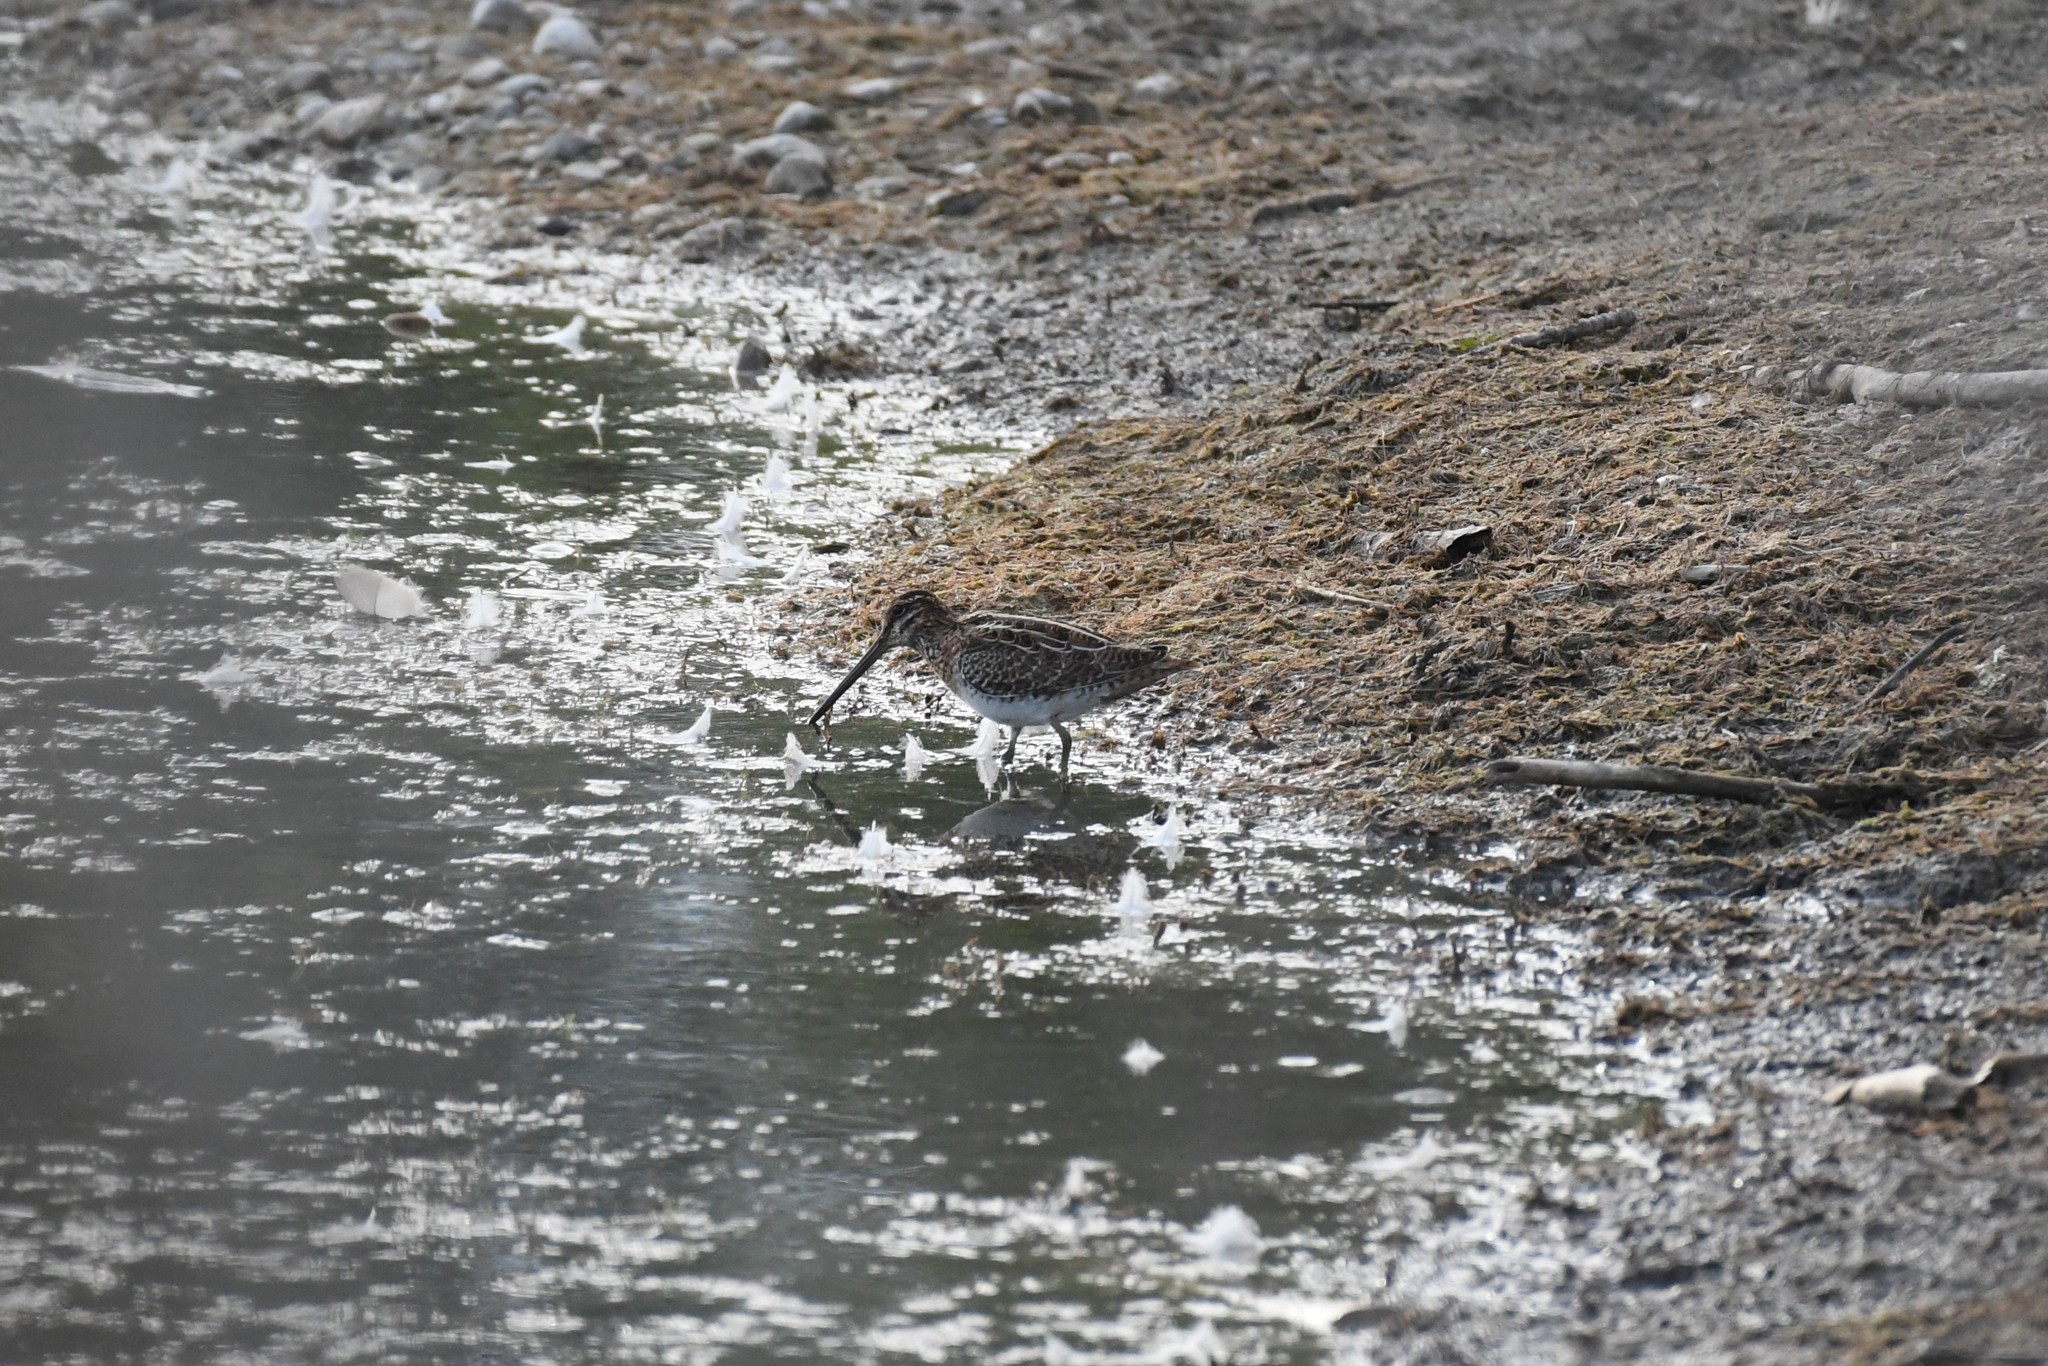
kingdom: Animalia
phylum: Chordata
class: Aves
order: Charadriiformes
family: Scolopacidae
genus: Gallinago
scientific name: Gallinago delicata
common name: Wilson's snipe
